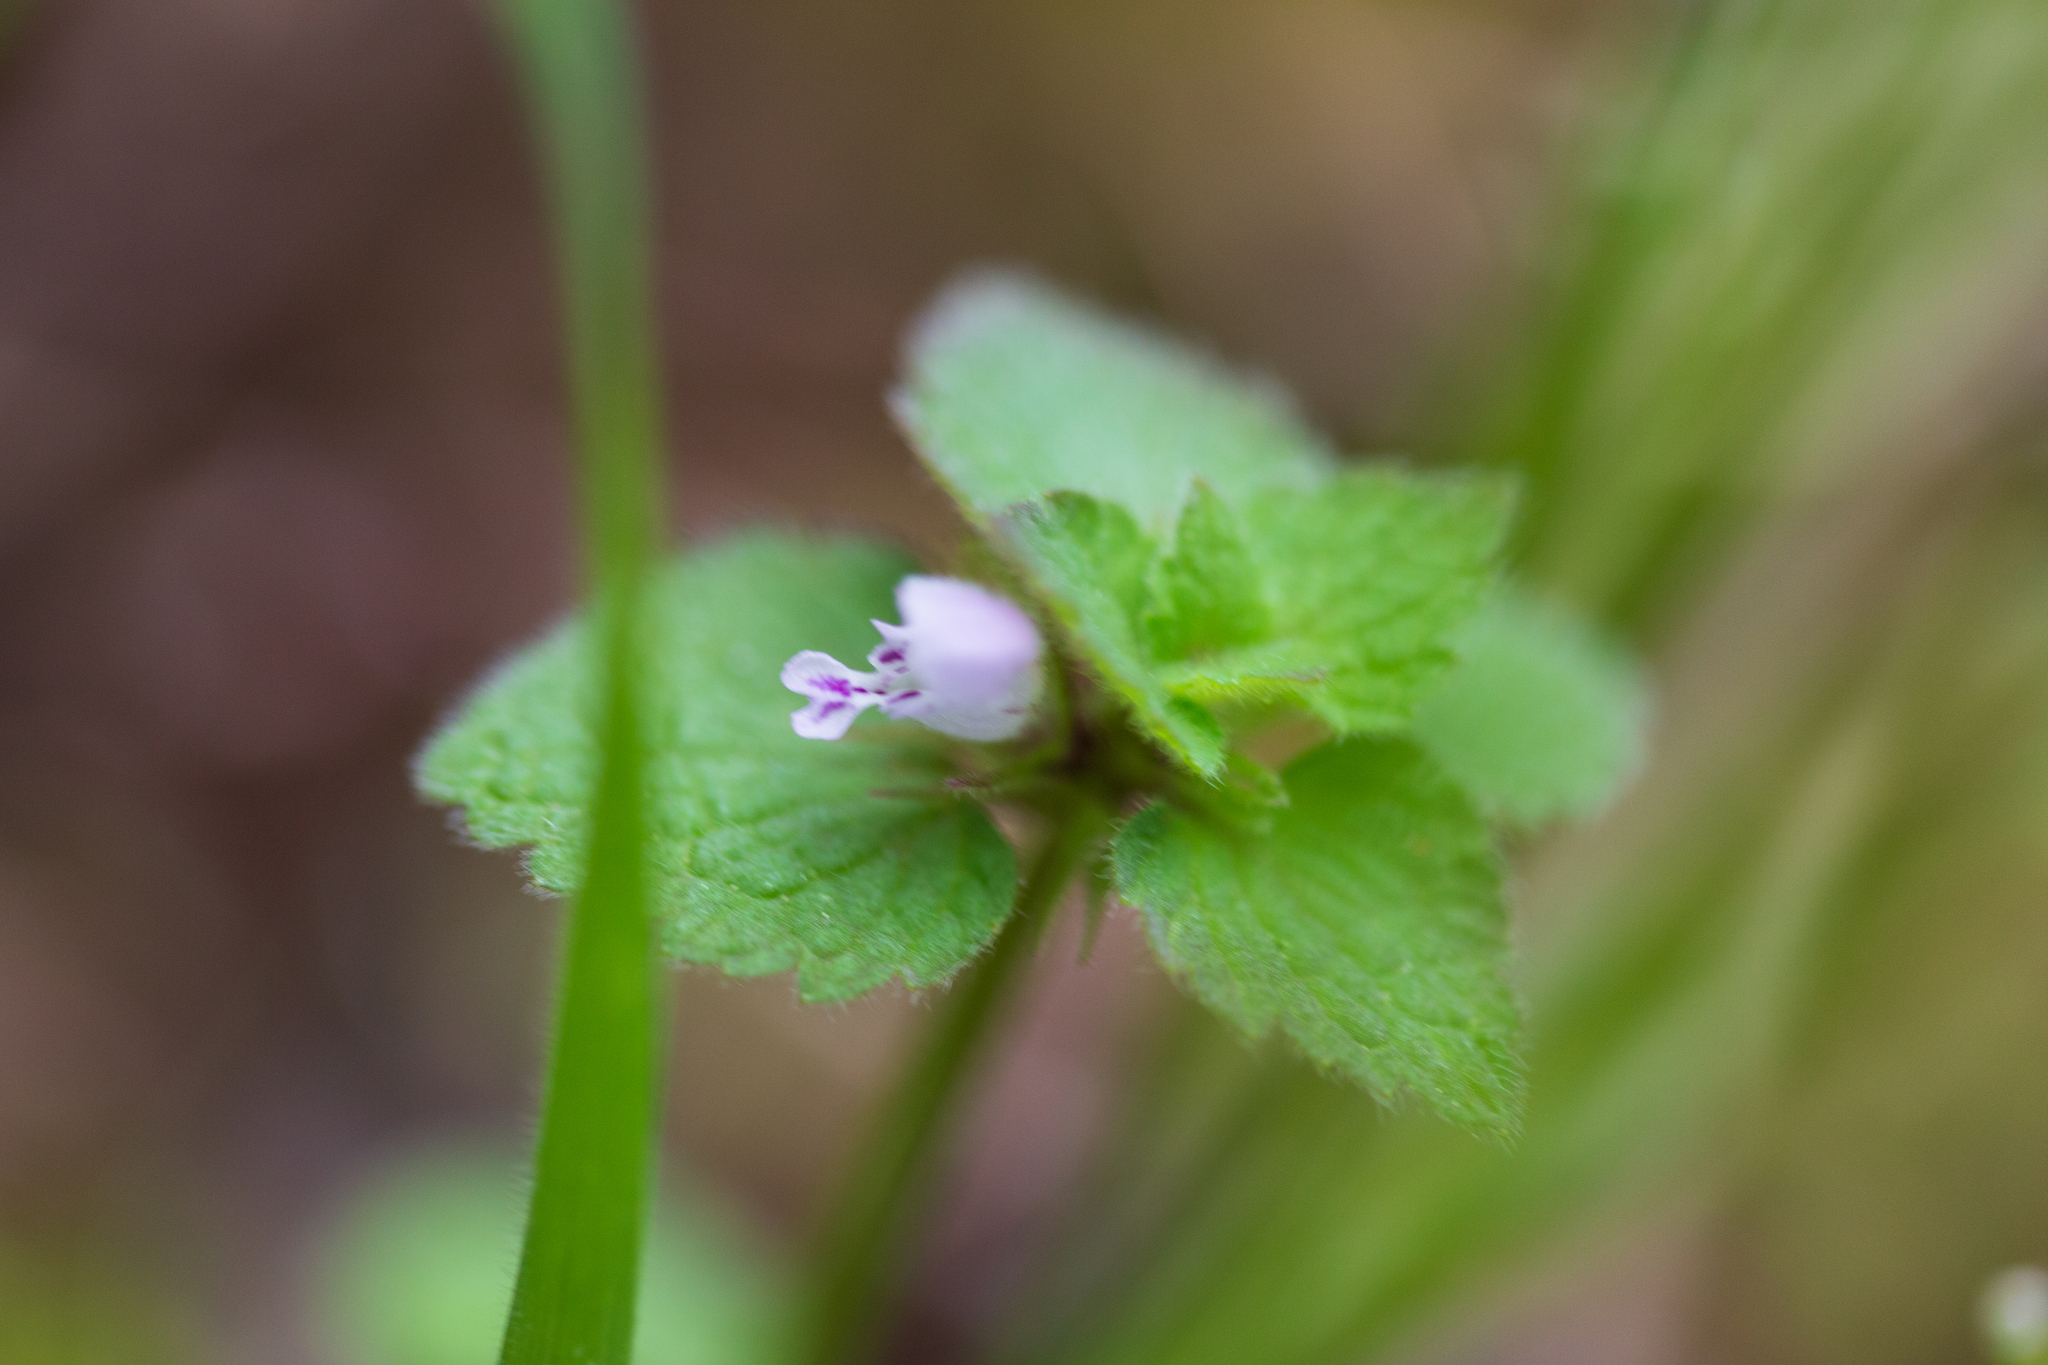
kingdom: Plantae
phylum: Tracheophyta
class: Magnoliopsida
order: Lamiales
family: Lamiaceae
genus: Lamium
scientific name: Lamium purpureum
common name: Red dead-nettle
